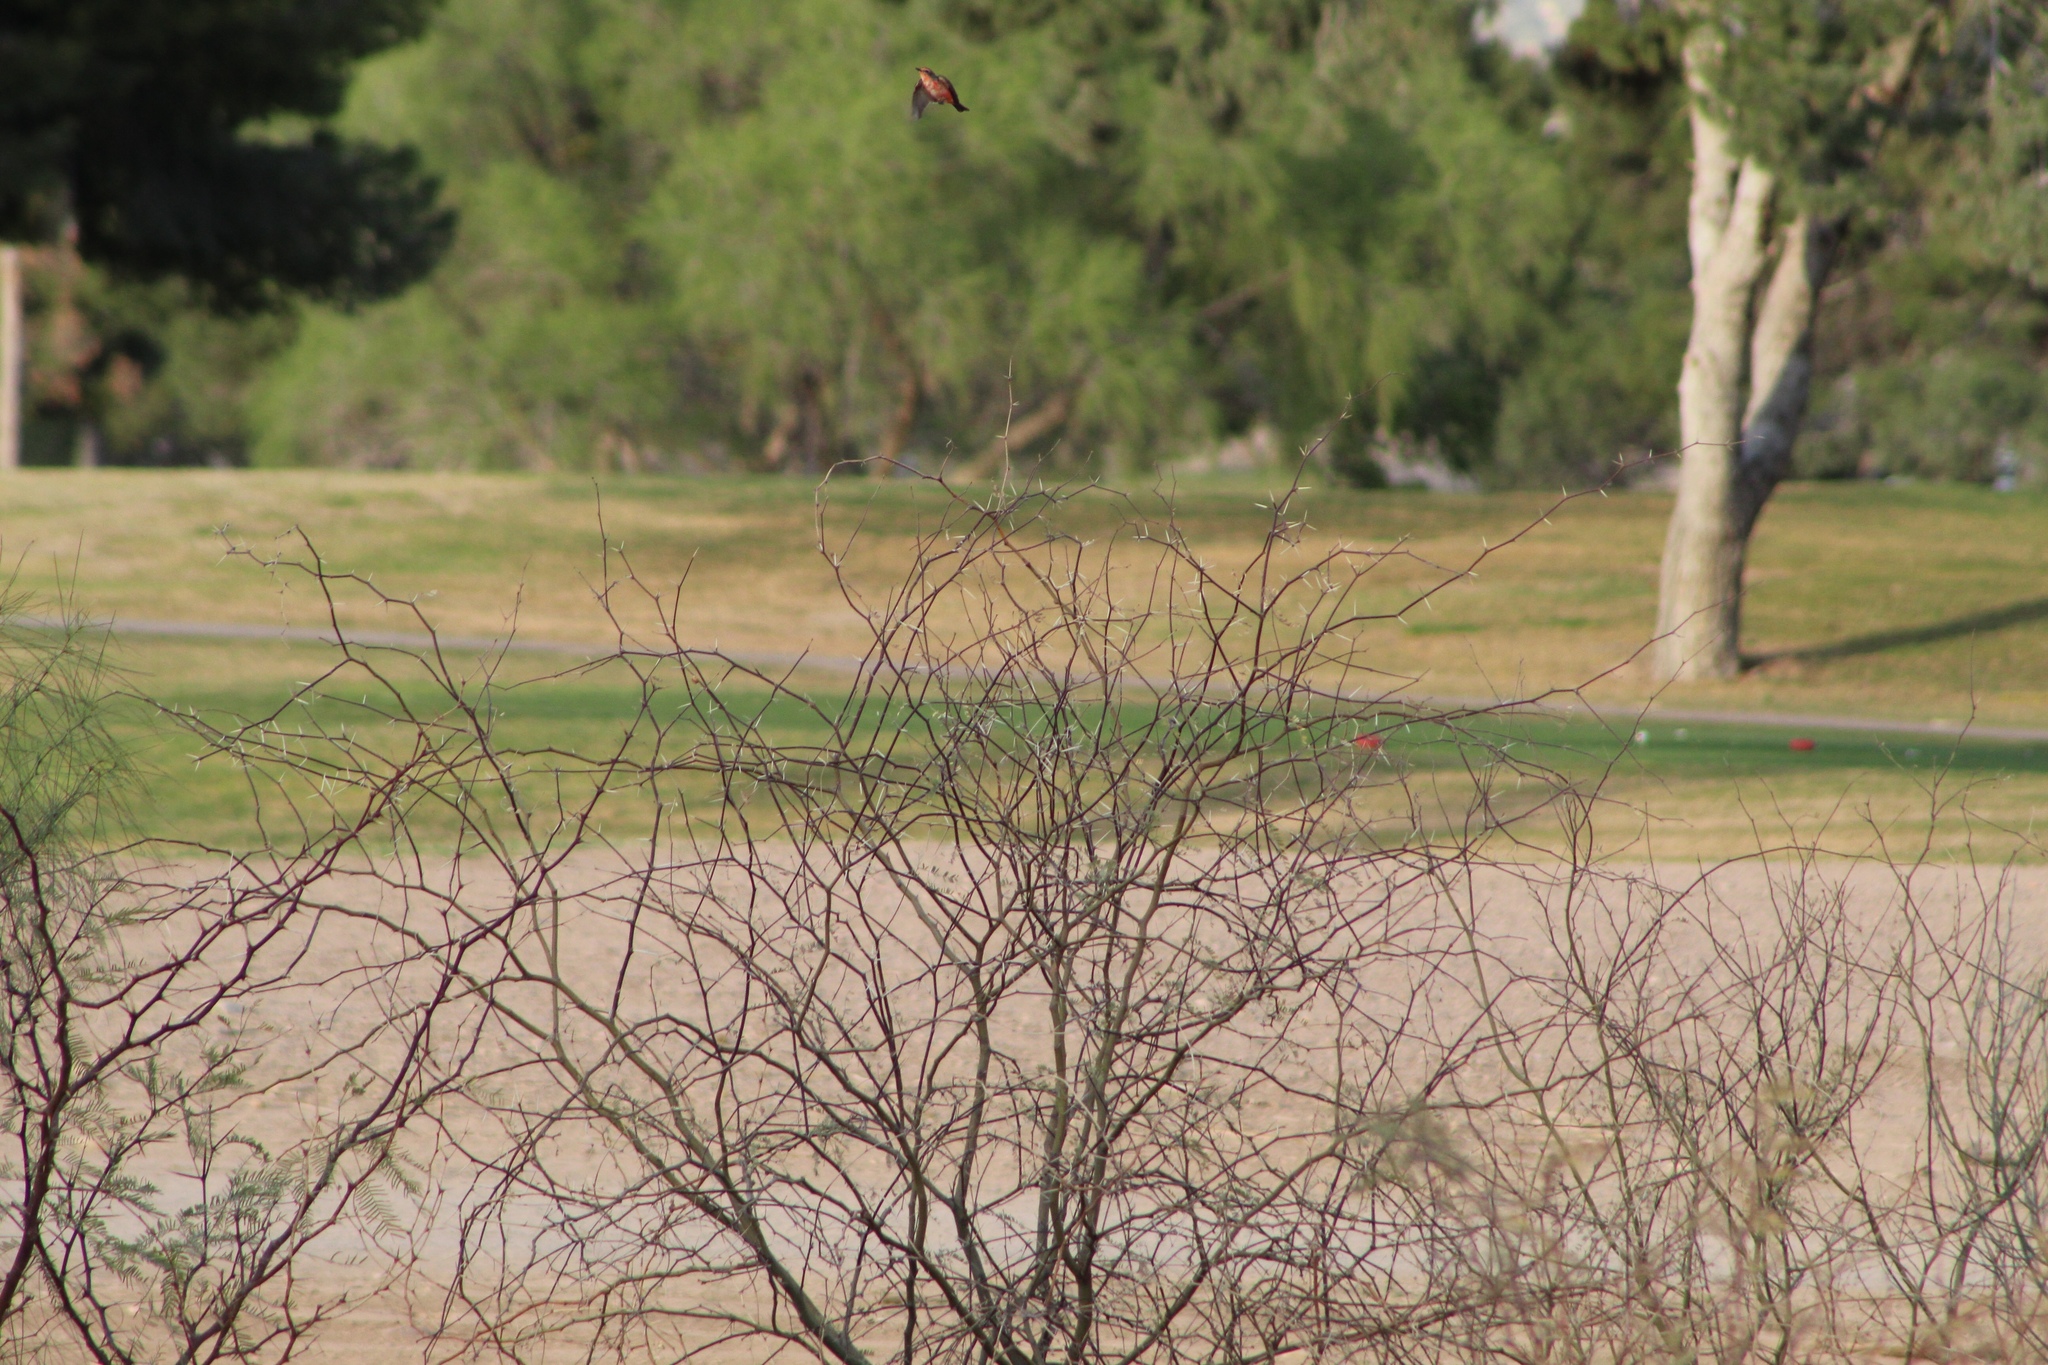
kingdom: Animalia
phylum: Chordata
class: Aves
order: Passeriformes
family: Tyrannidae
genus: Pyrocephalus
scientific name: Pyrocephalus rubinus
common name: Vermilion flycatcher
